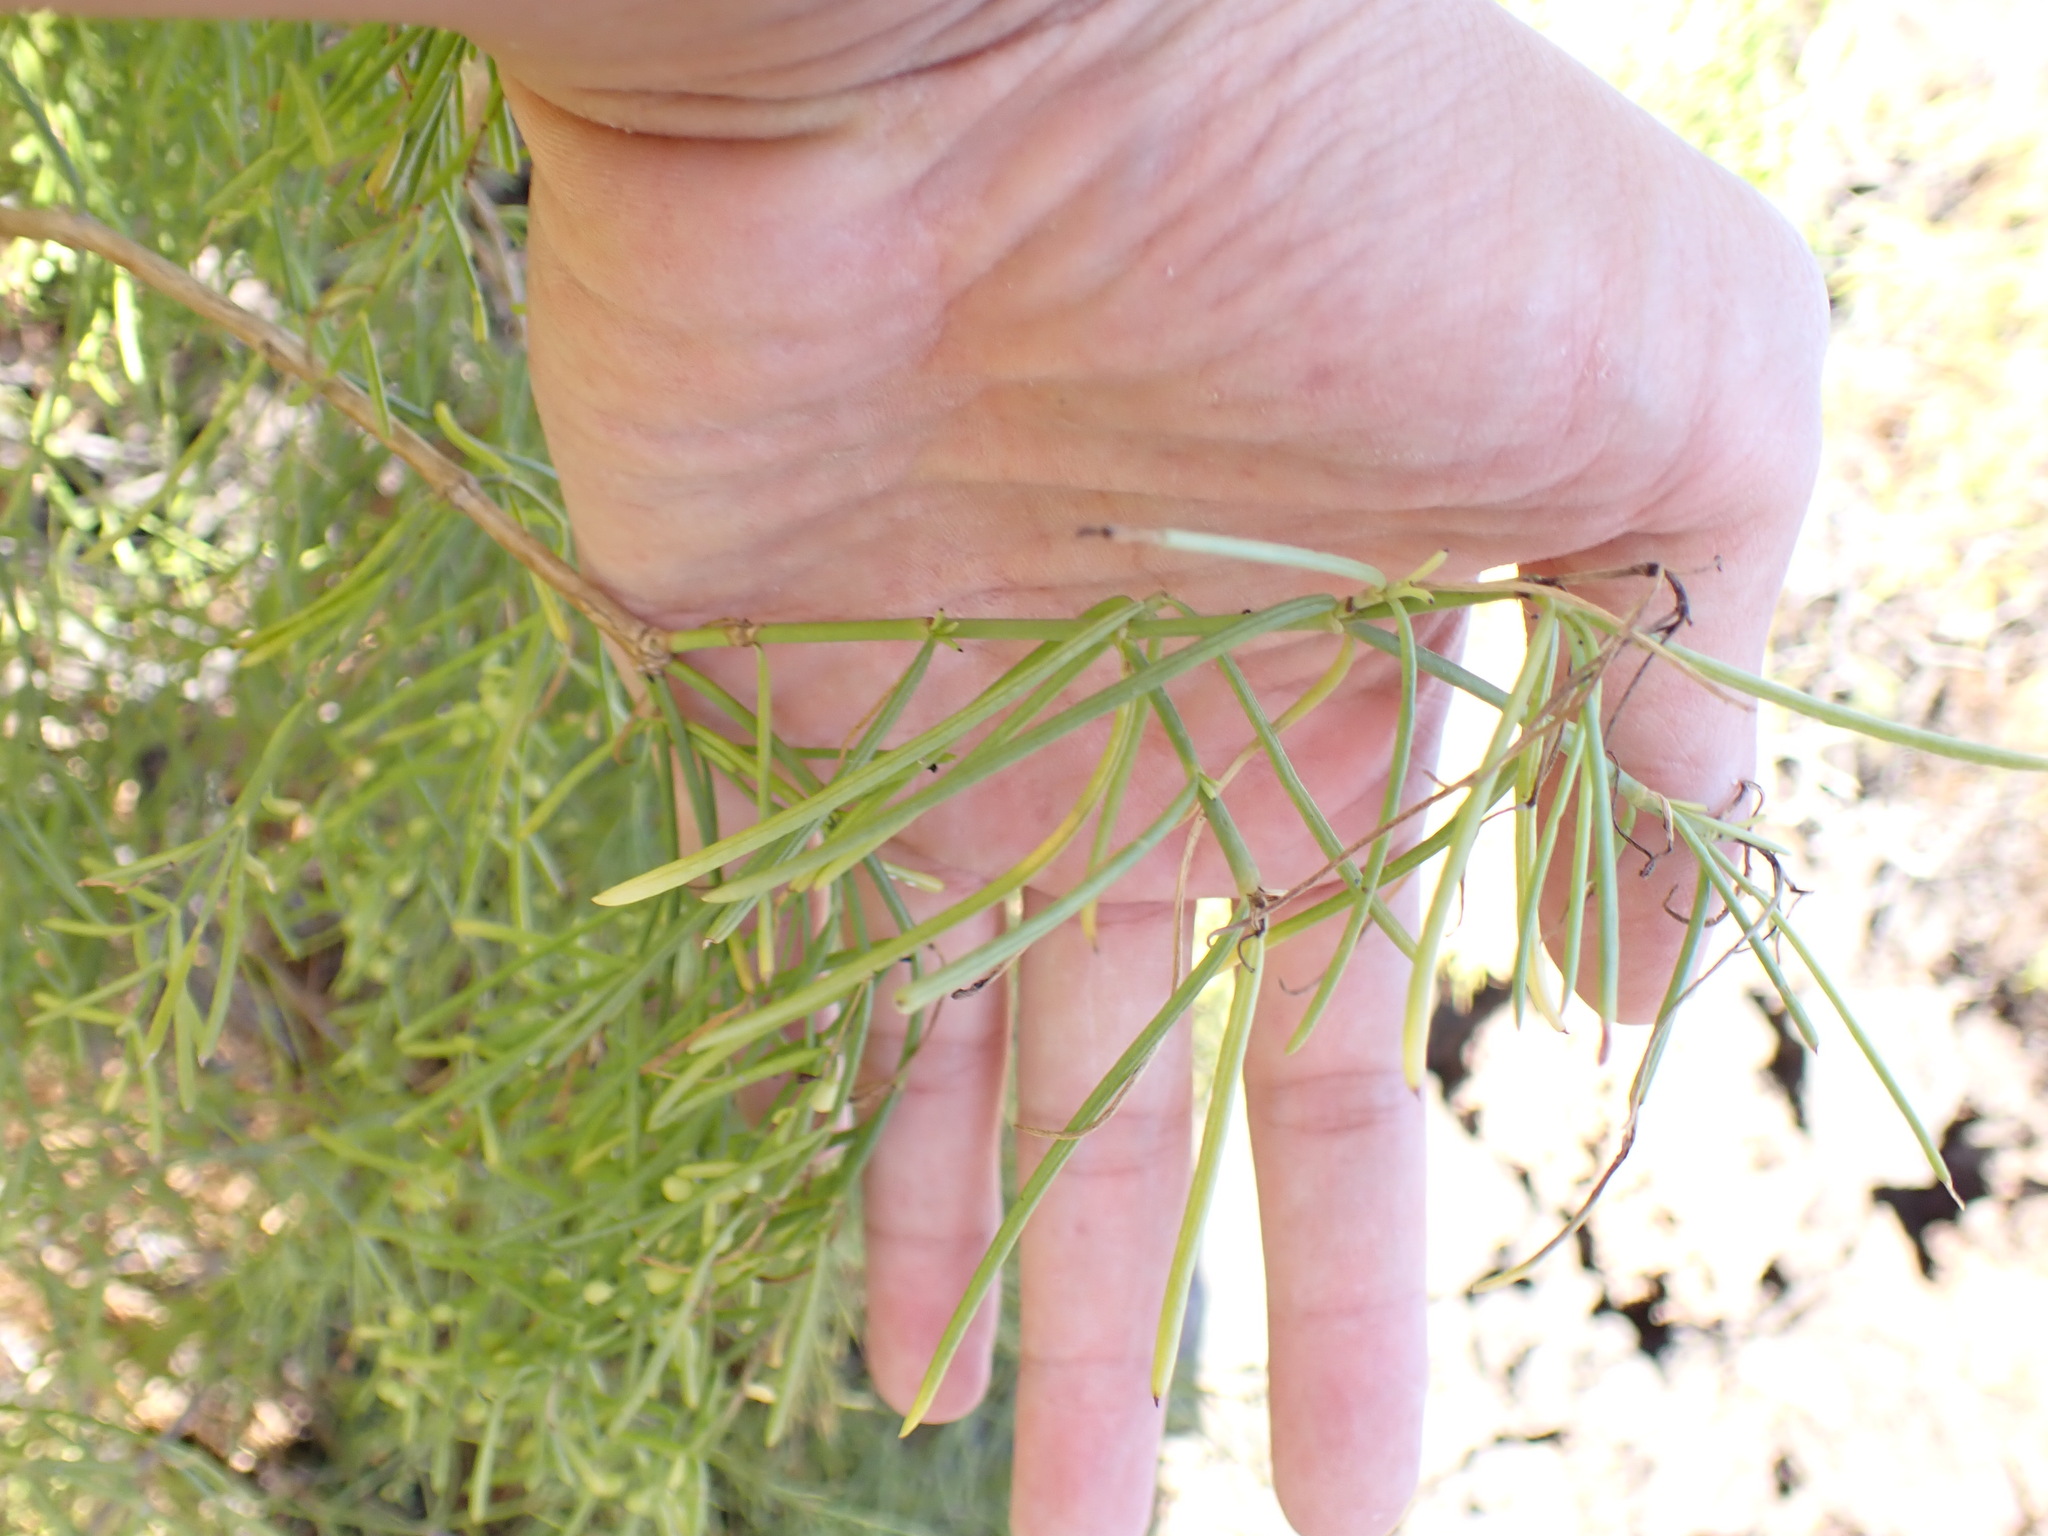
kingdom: Plantae
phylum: Tracheophyta
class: Magnoliopsida
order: Gentianales
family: Rubiaceae
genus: Plocama
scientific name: Plocama pendula
